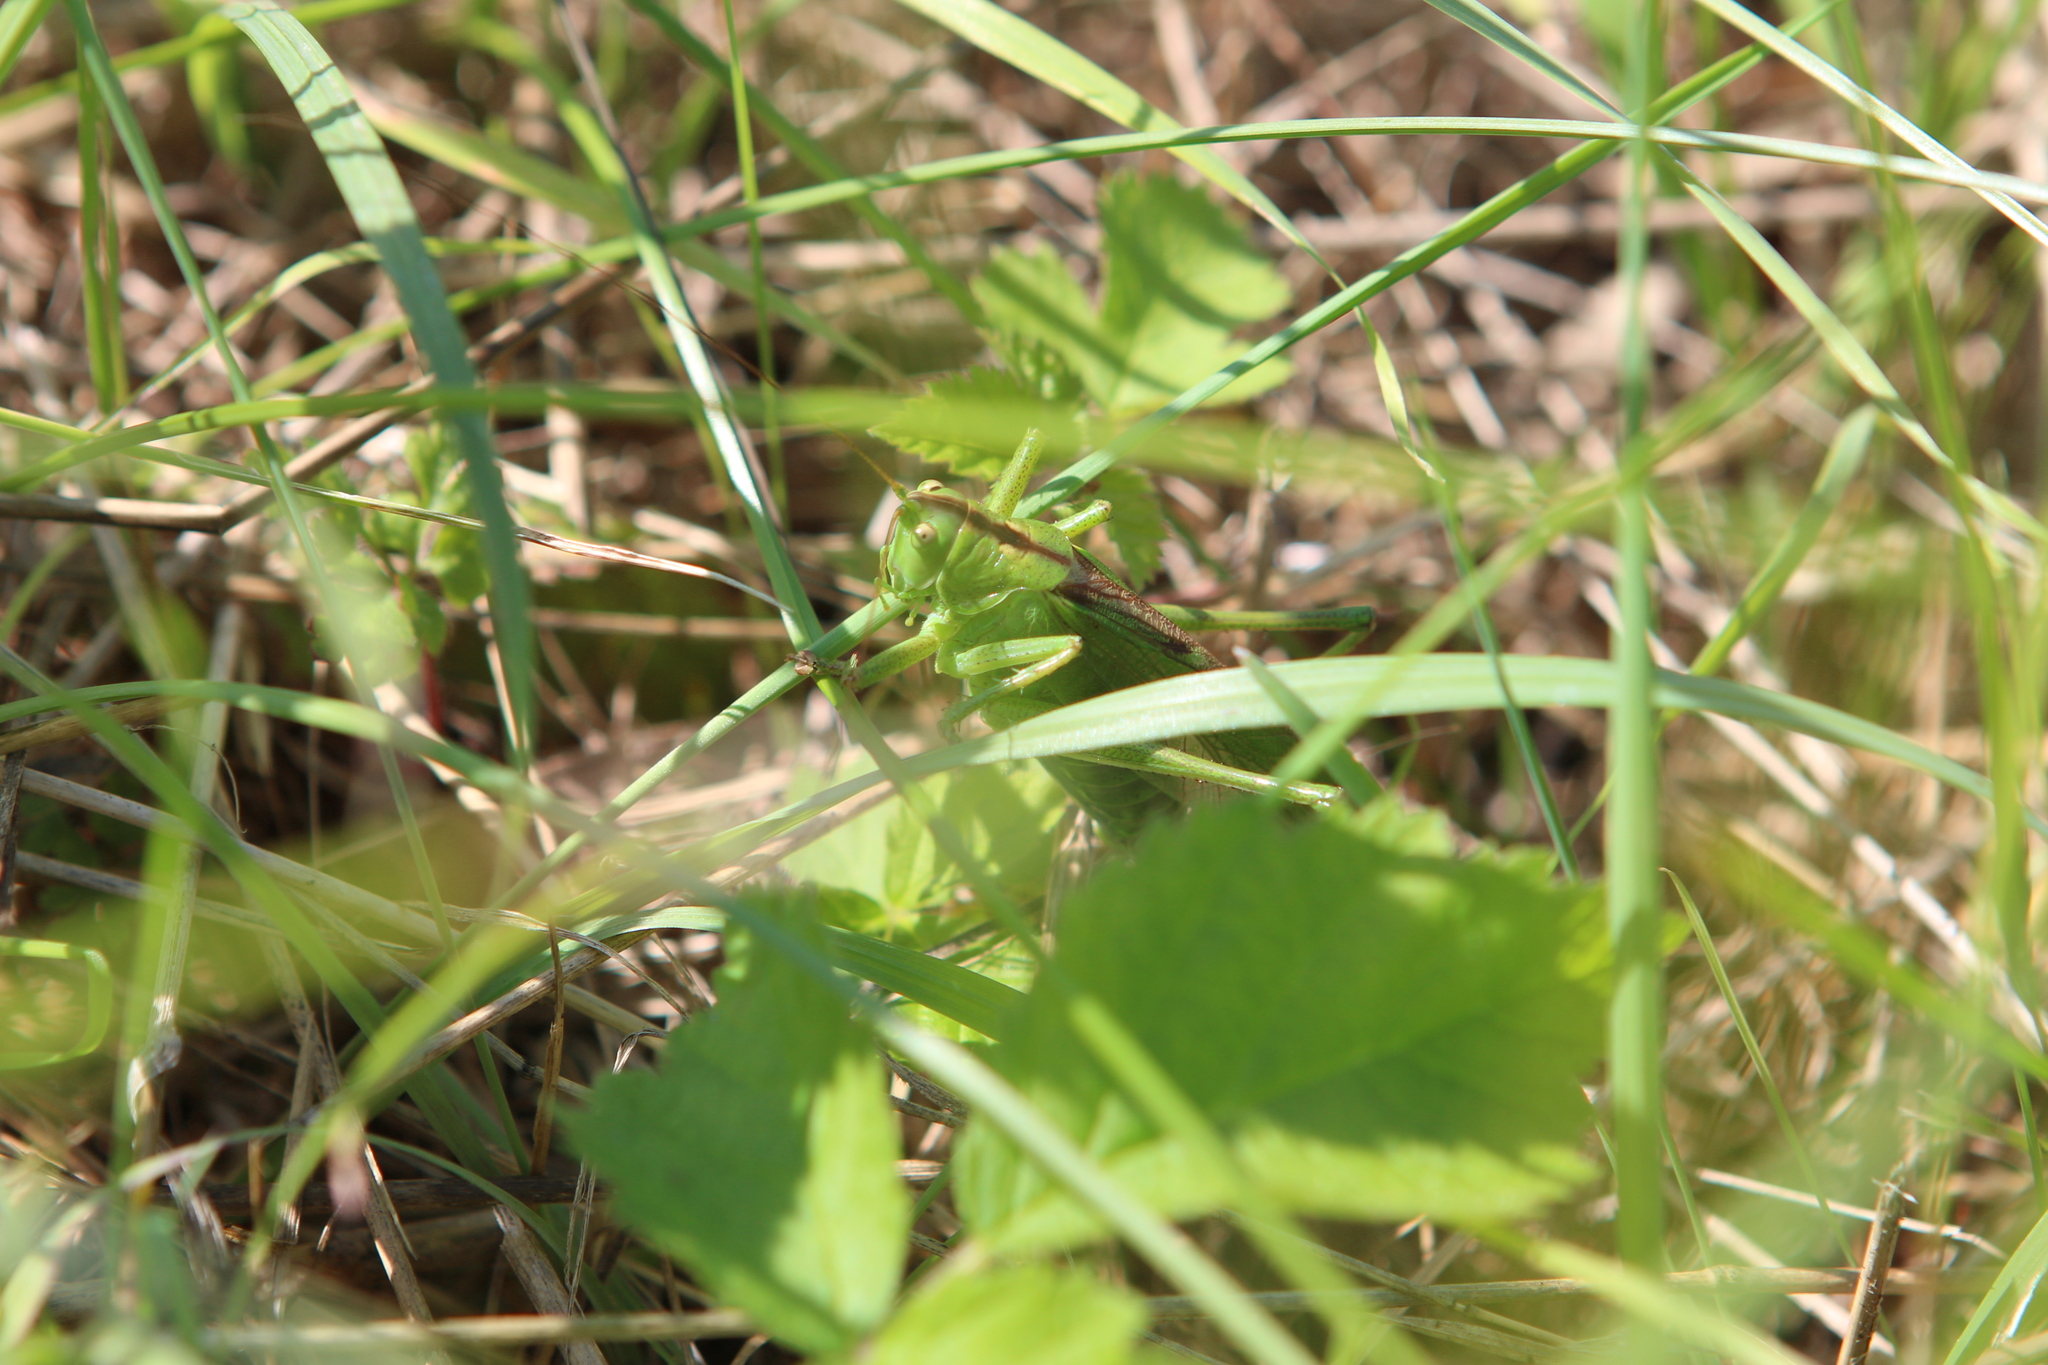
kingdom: Animalia
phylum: Arthropoda
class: Insecta
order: Orthoptera
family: Tettigoniidae
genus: Tettigonia
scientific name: Tettigonia viridissima
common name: Great green bush-cricket
